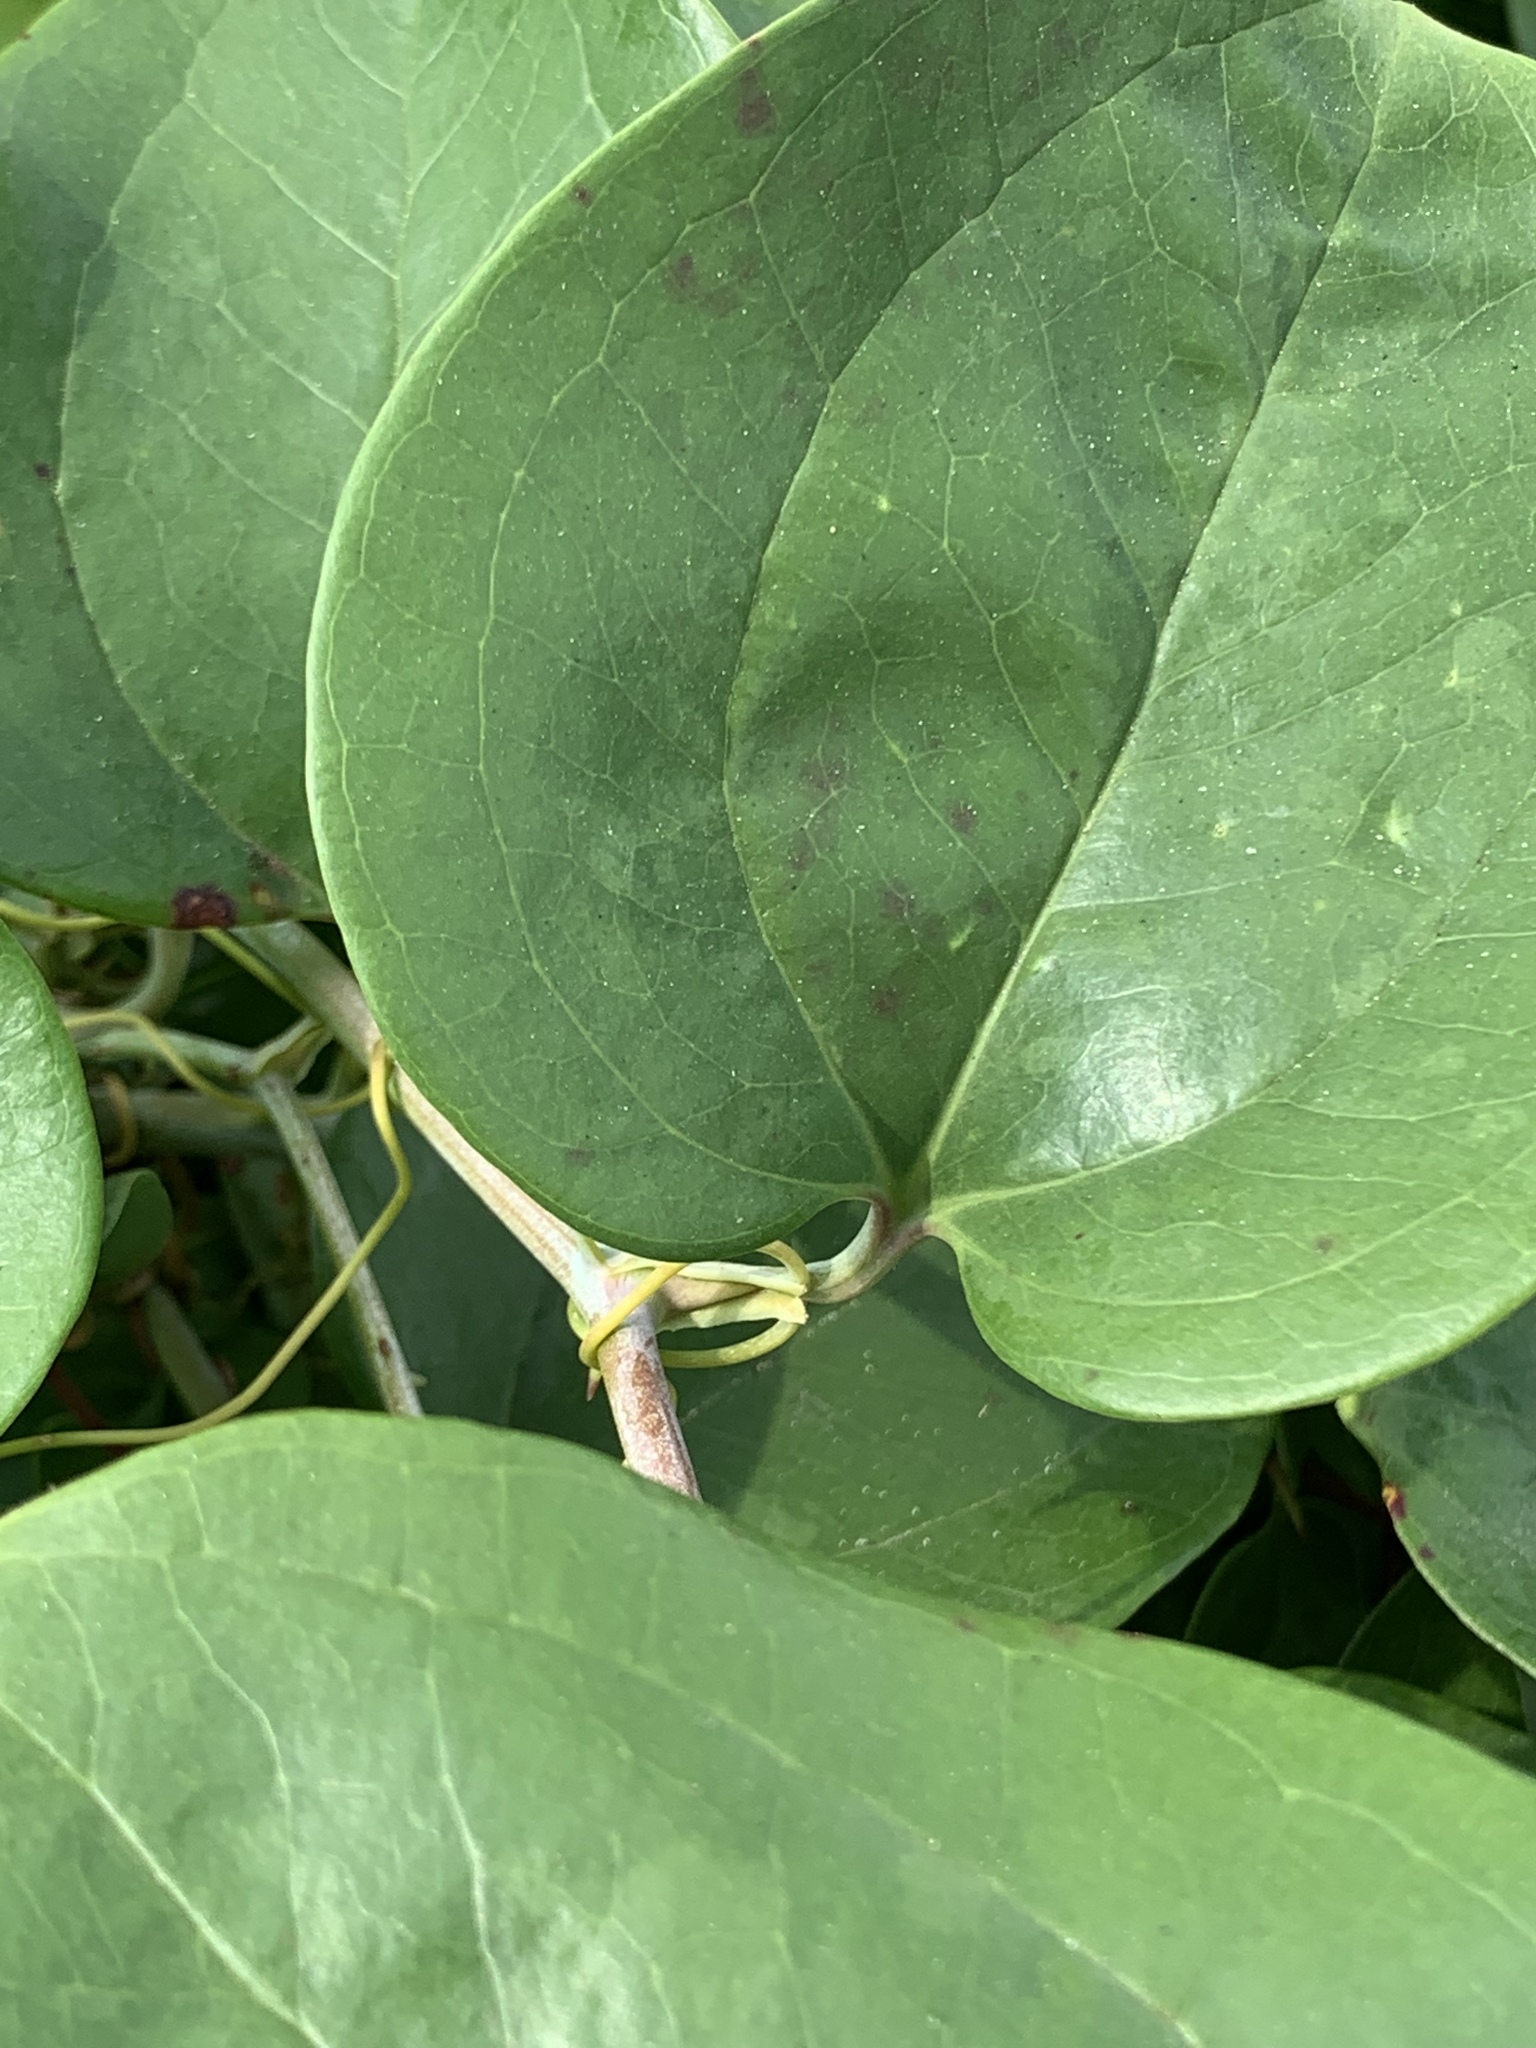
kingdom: Plantae
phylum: Tracheophyta
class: Liliopsida
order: Liliales
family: Smilacaceae
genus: Smilax
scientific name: Smilax rotundifolia
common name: Bullbriar
